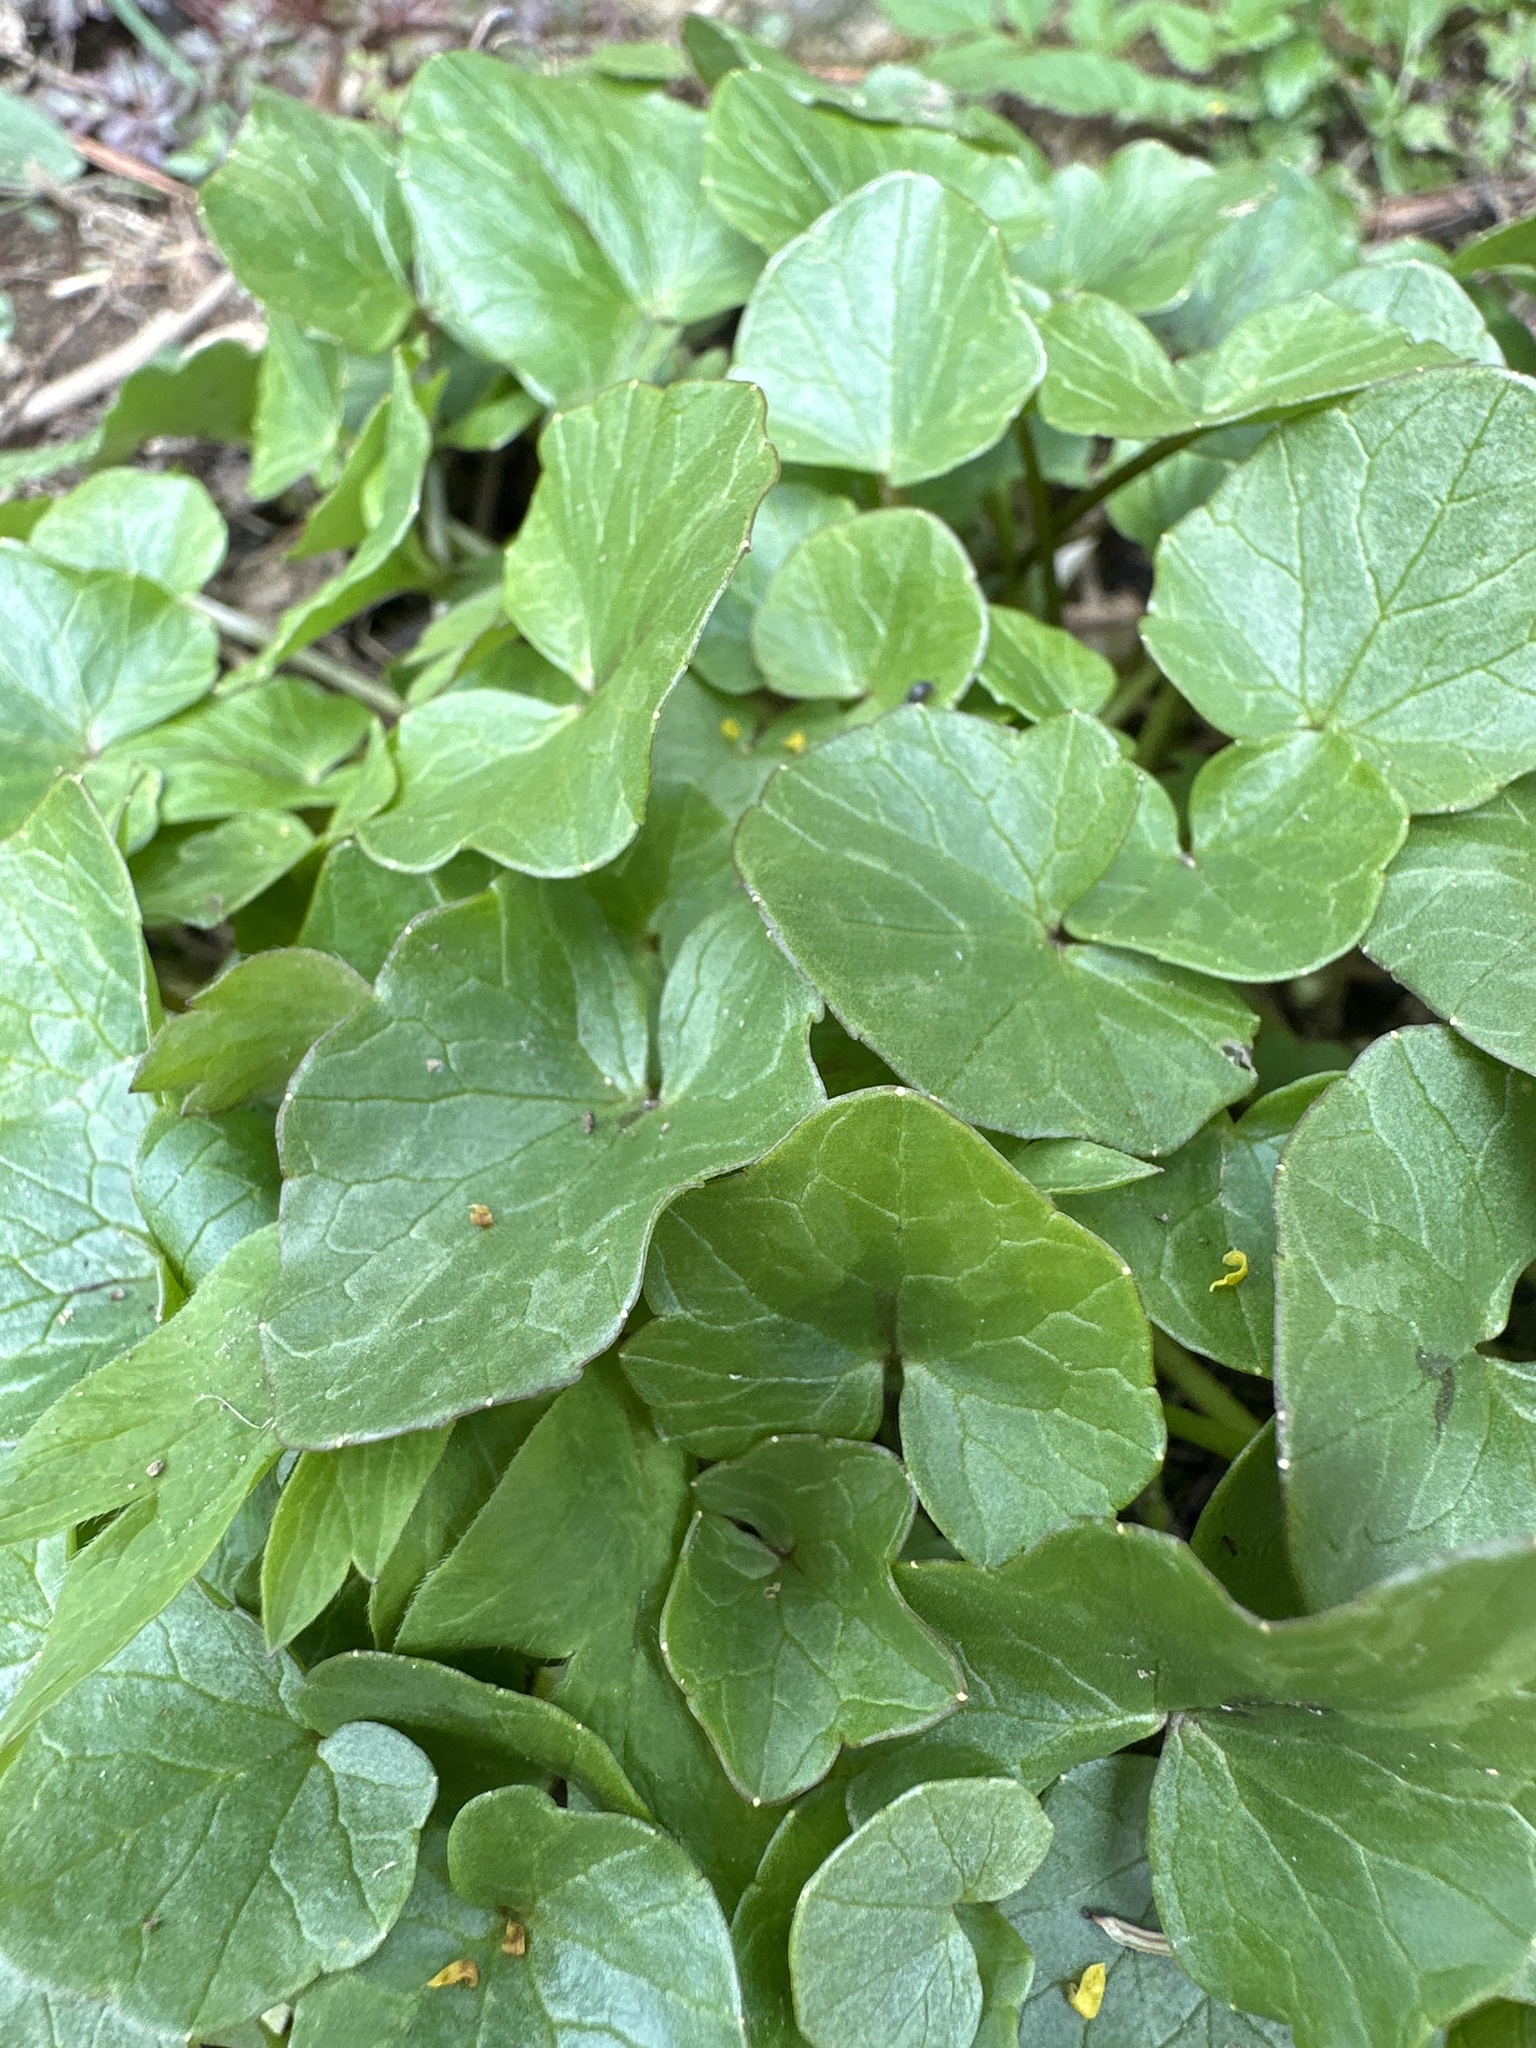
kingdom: Plantae
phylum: Tracheophyta
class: Magnoliopsida
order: Ranunculales
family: Ranunculaceae
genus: Ficaria
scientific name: Ficaria verna
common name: Lesser celandine
